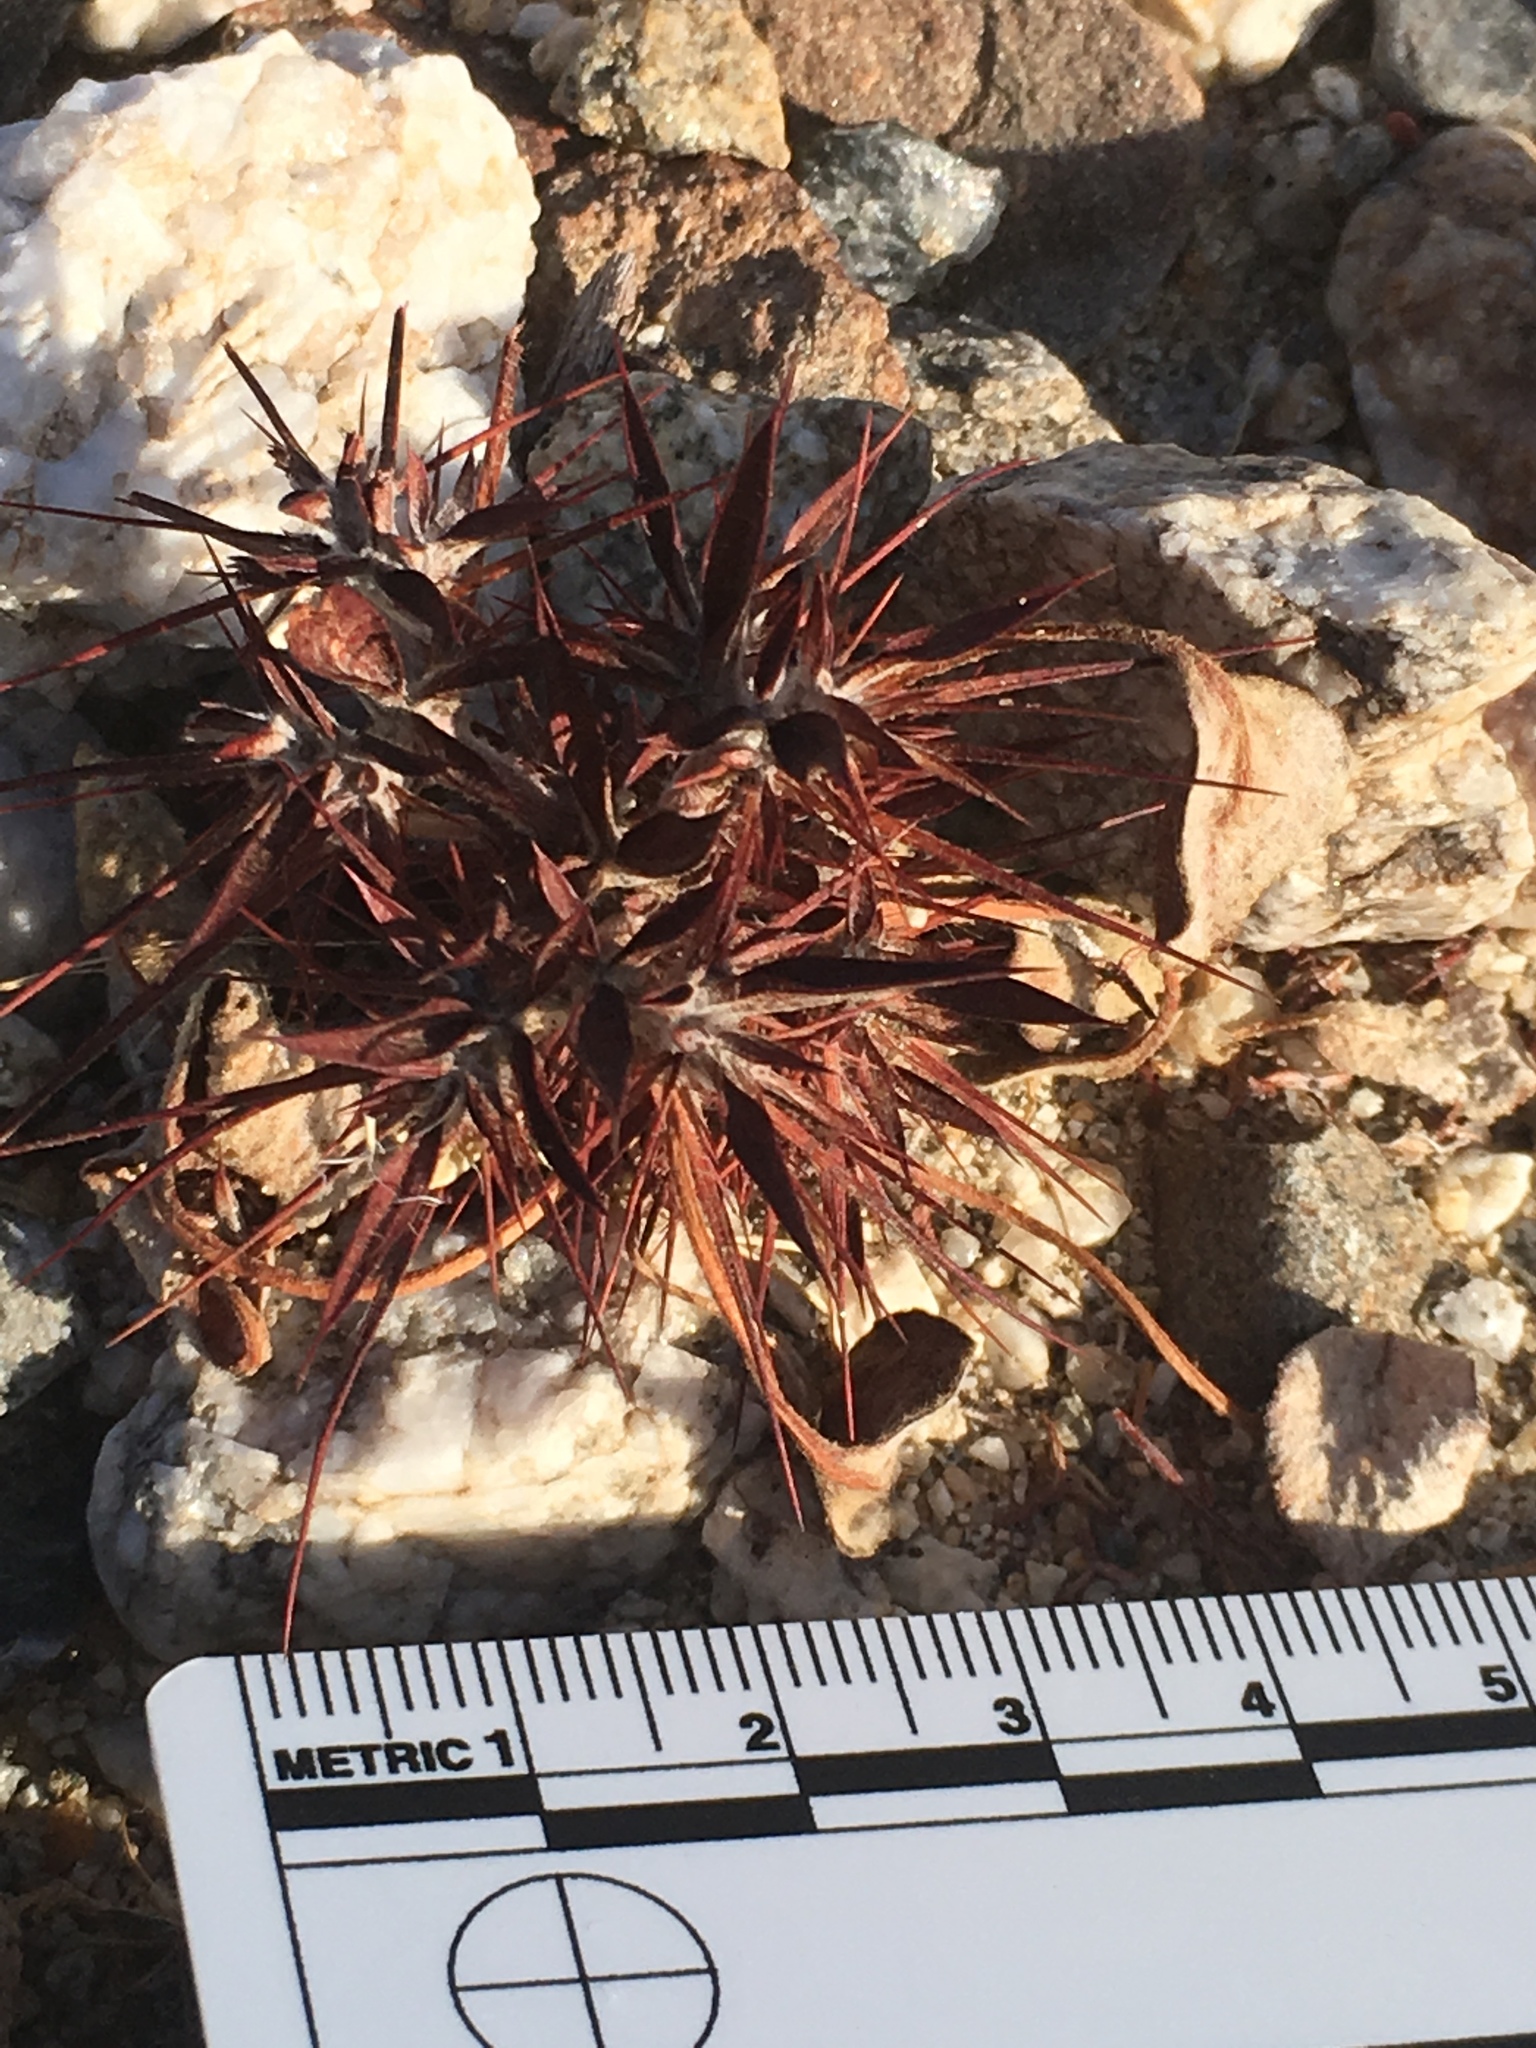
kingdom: Plantae
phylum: Tracheophyta
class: Magnoliopsida
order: Caryophyllales
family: Polygonaceae
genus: Chorizanthe
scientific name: Chorizanthe rigida
